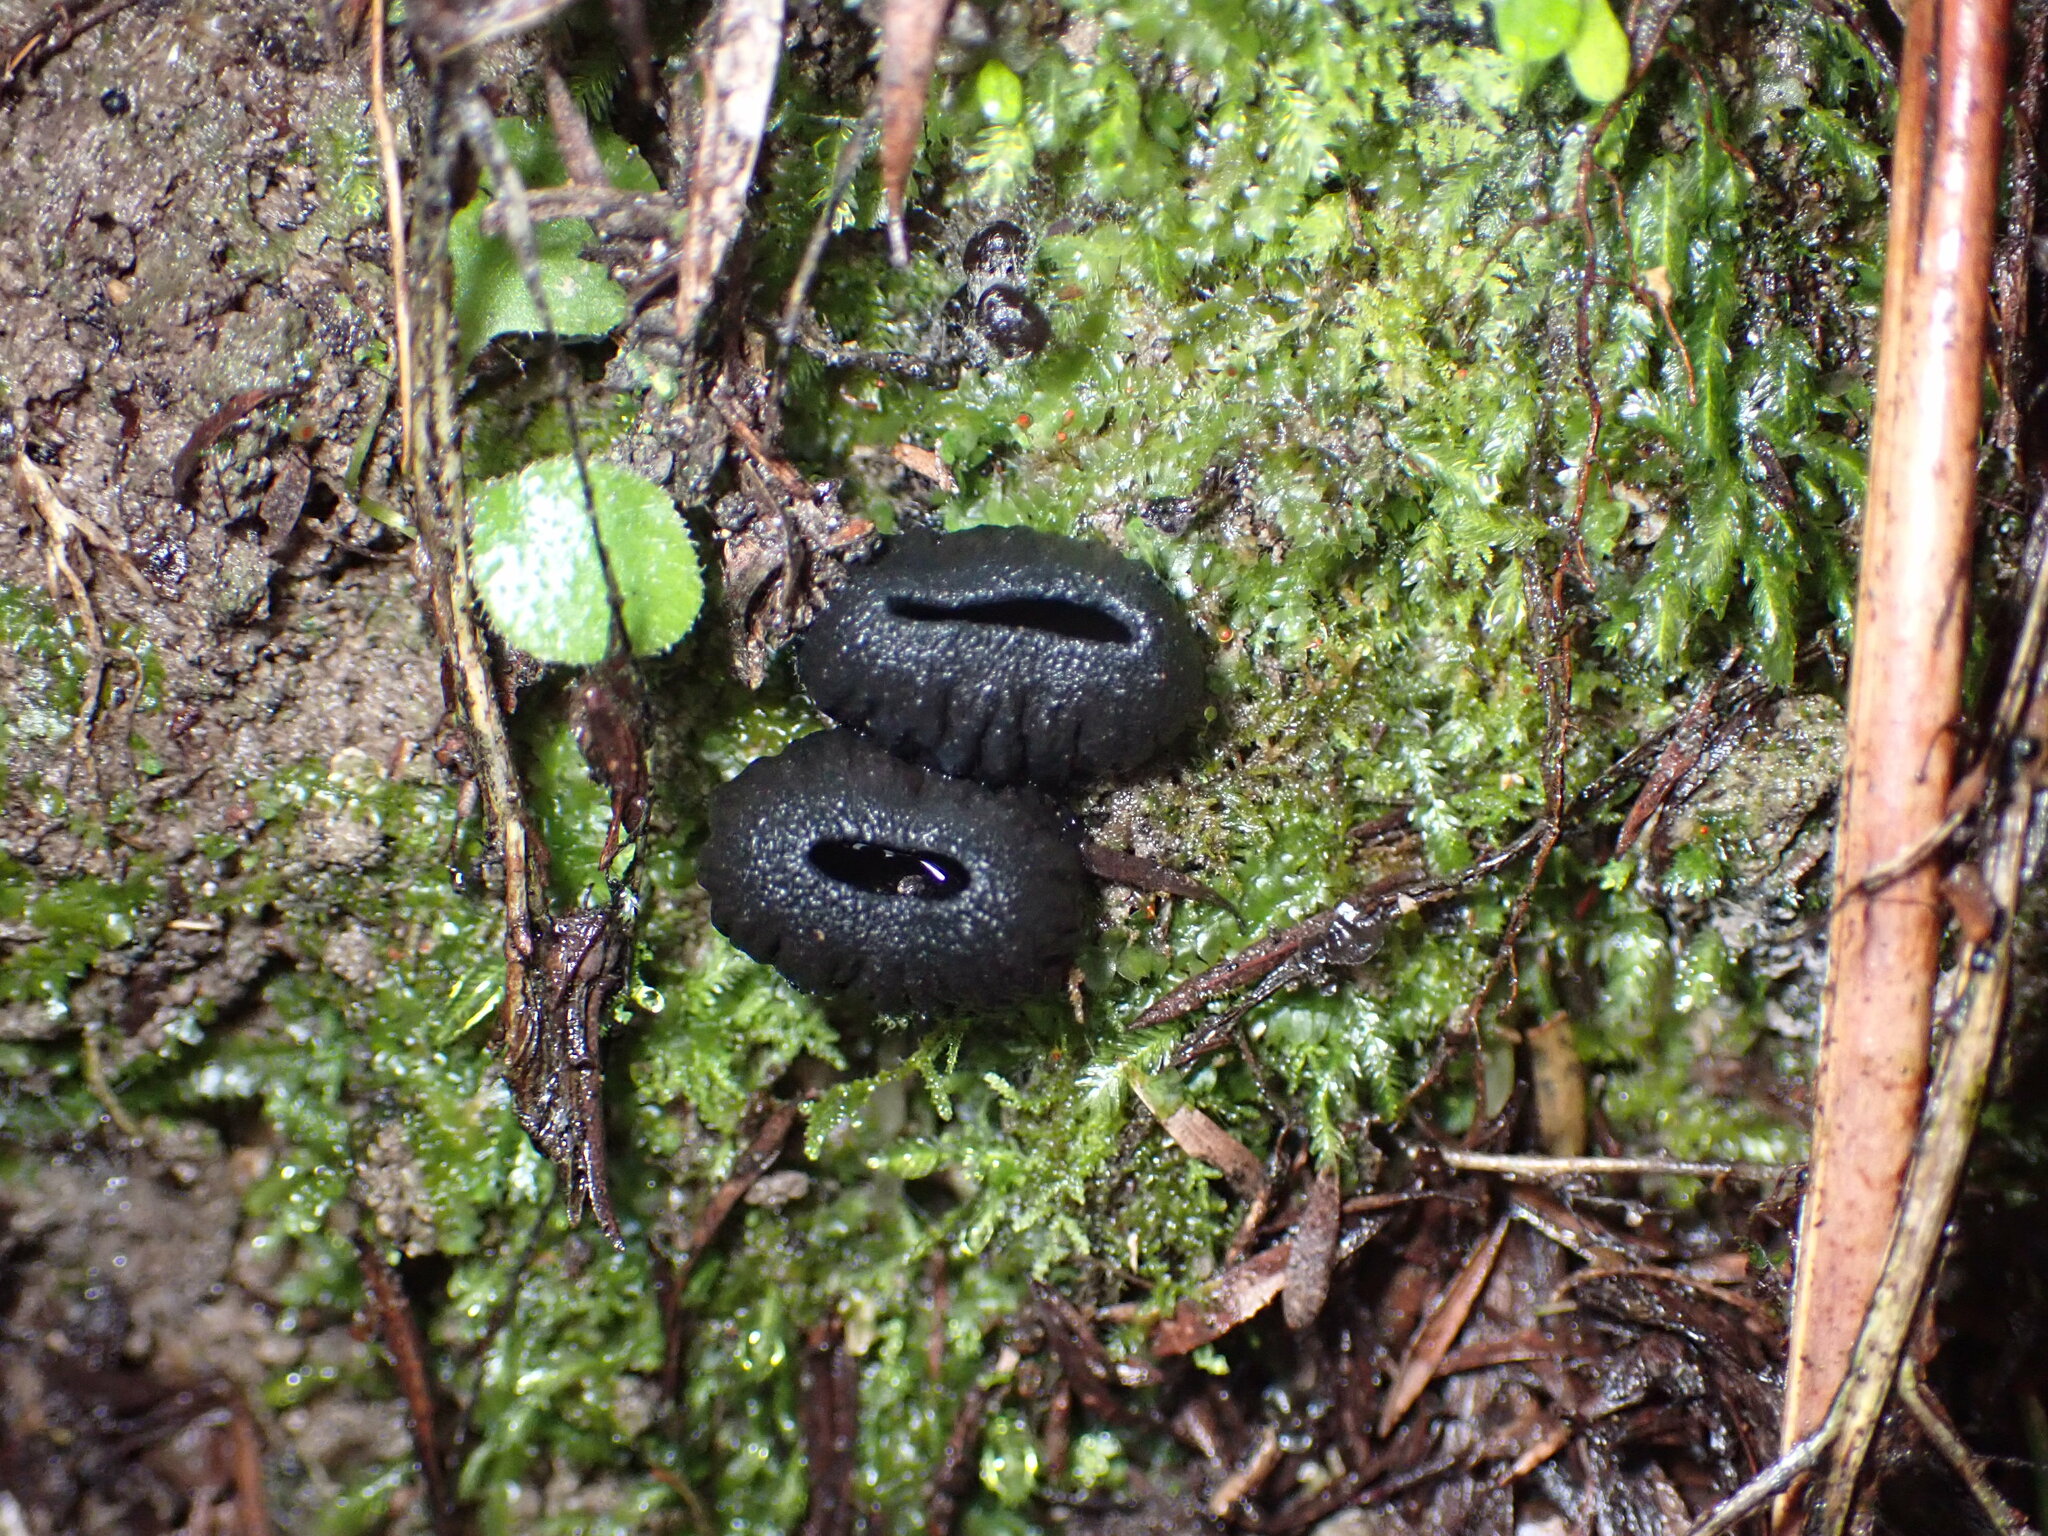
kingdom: Fungi
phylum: Ascomycota
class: Pezizomycetes
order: Pezizales
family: Sarcosomataceae
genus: Plectania
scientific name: Plectania rhytidia
